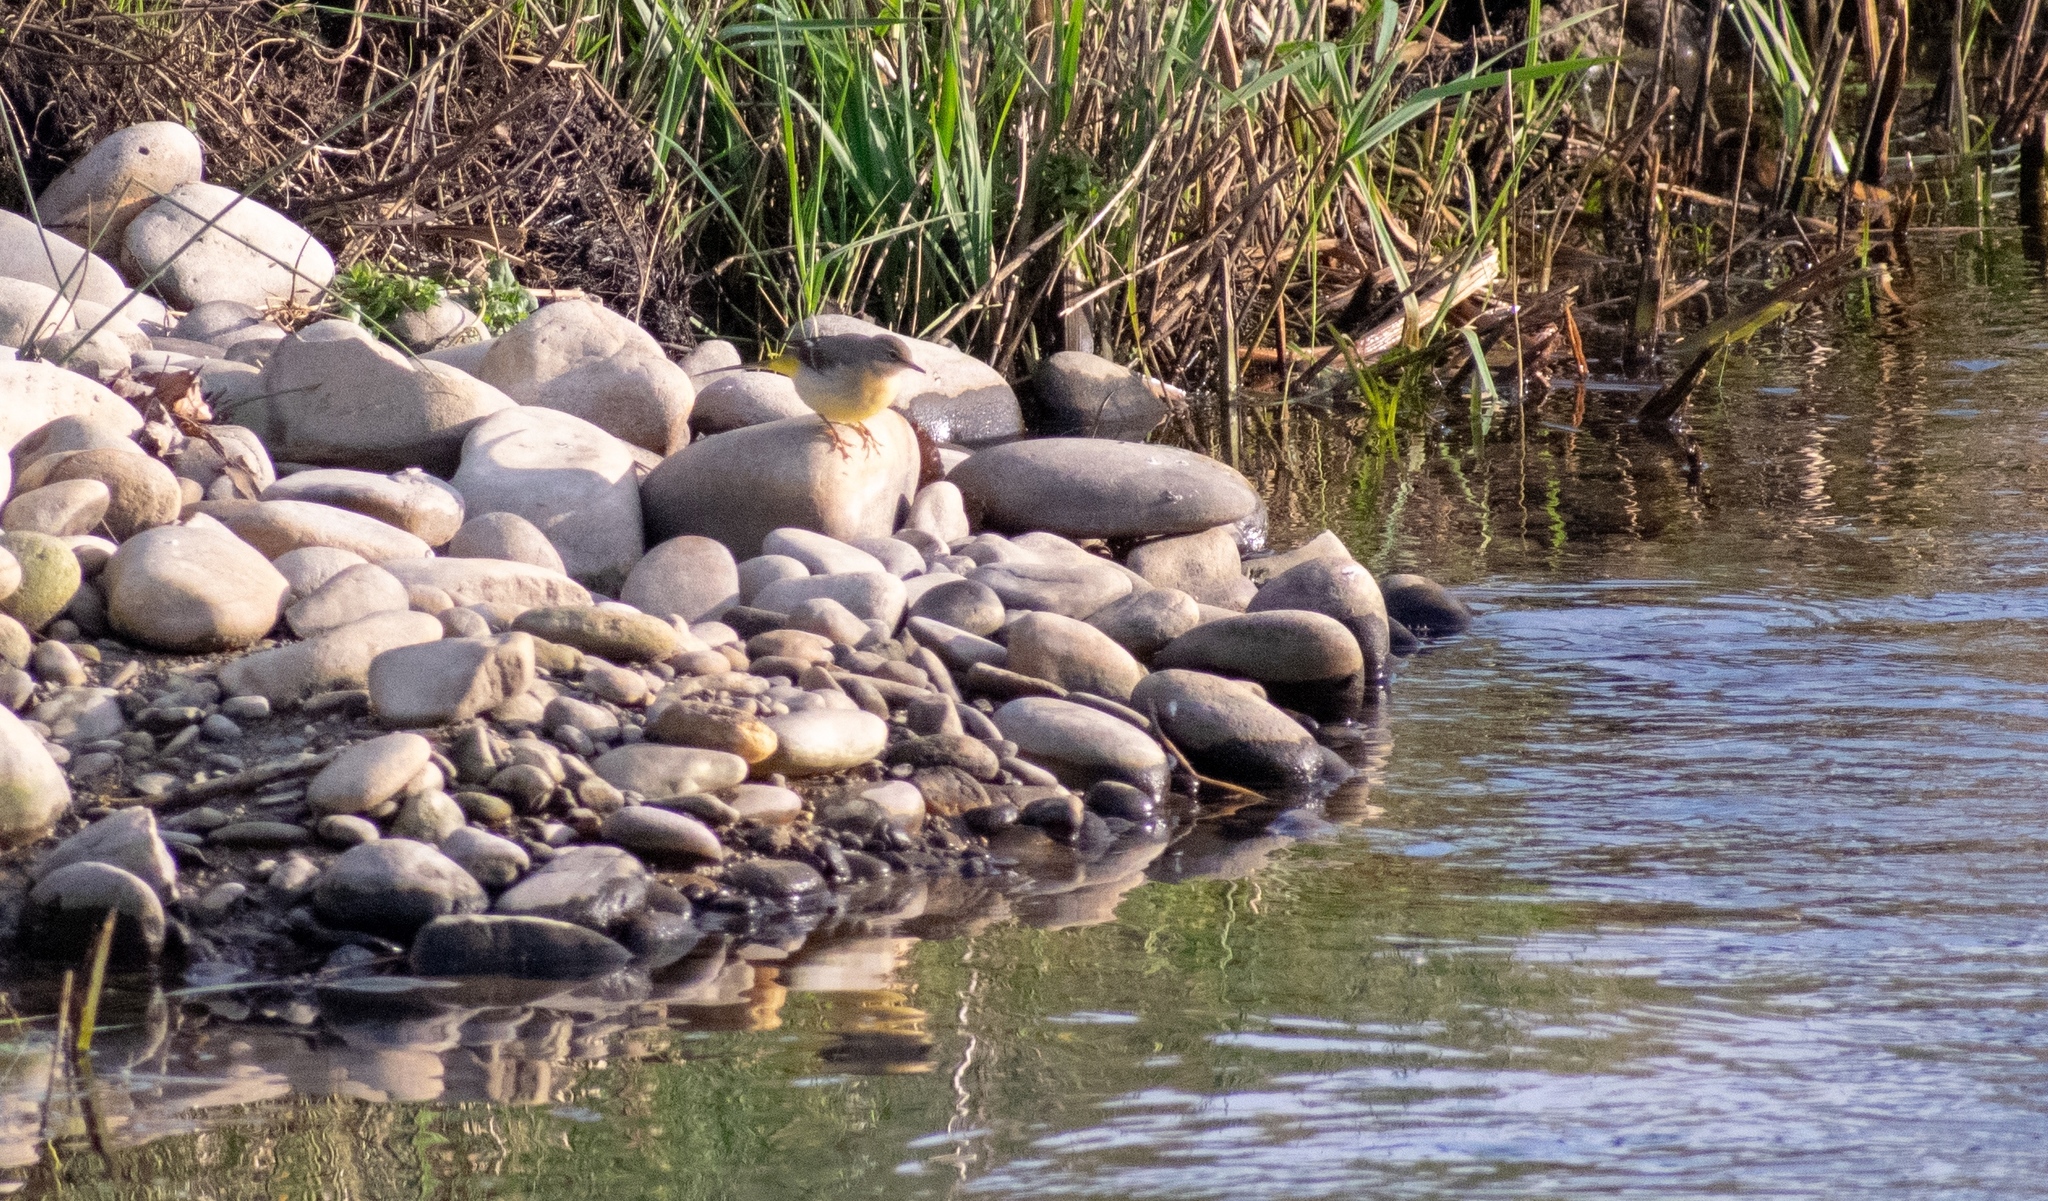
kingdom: Animalia
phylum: Chordata
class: Aves
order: Passeriformes
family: Motacillidae
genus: Motacilla
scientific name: Motacilla cinerea
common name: Grey wagtail
